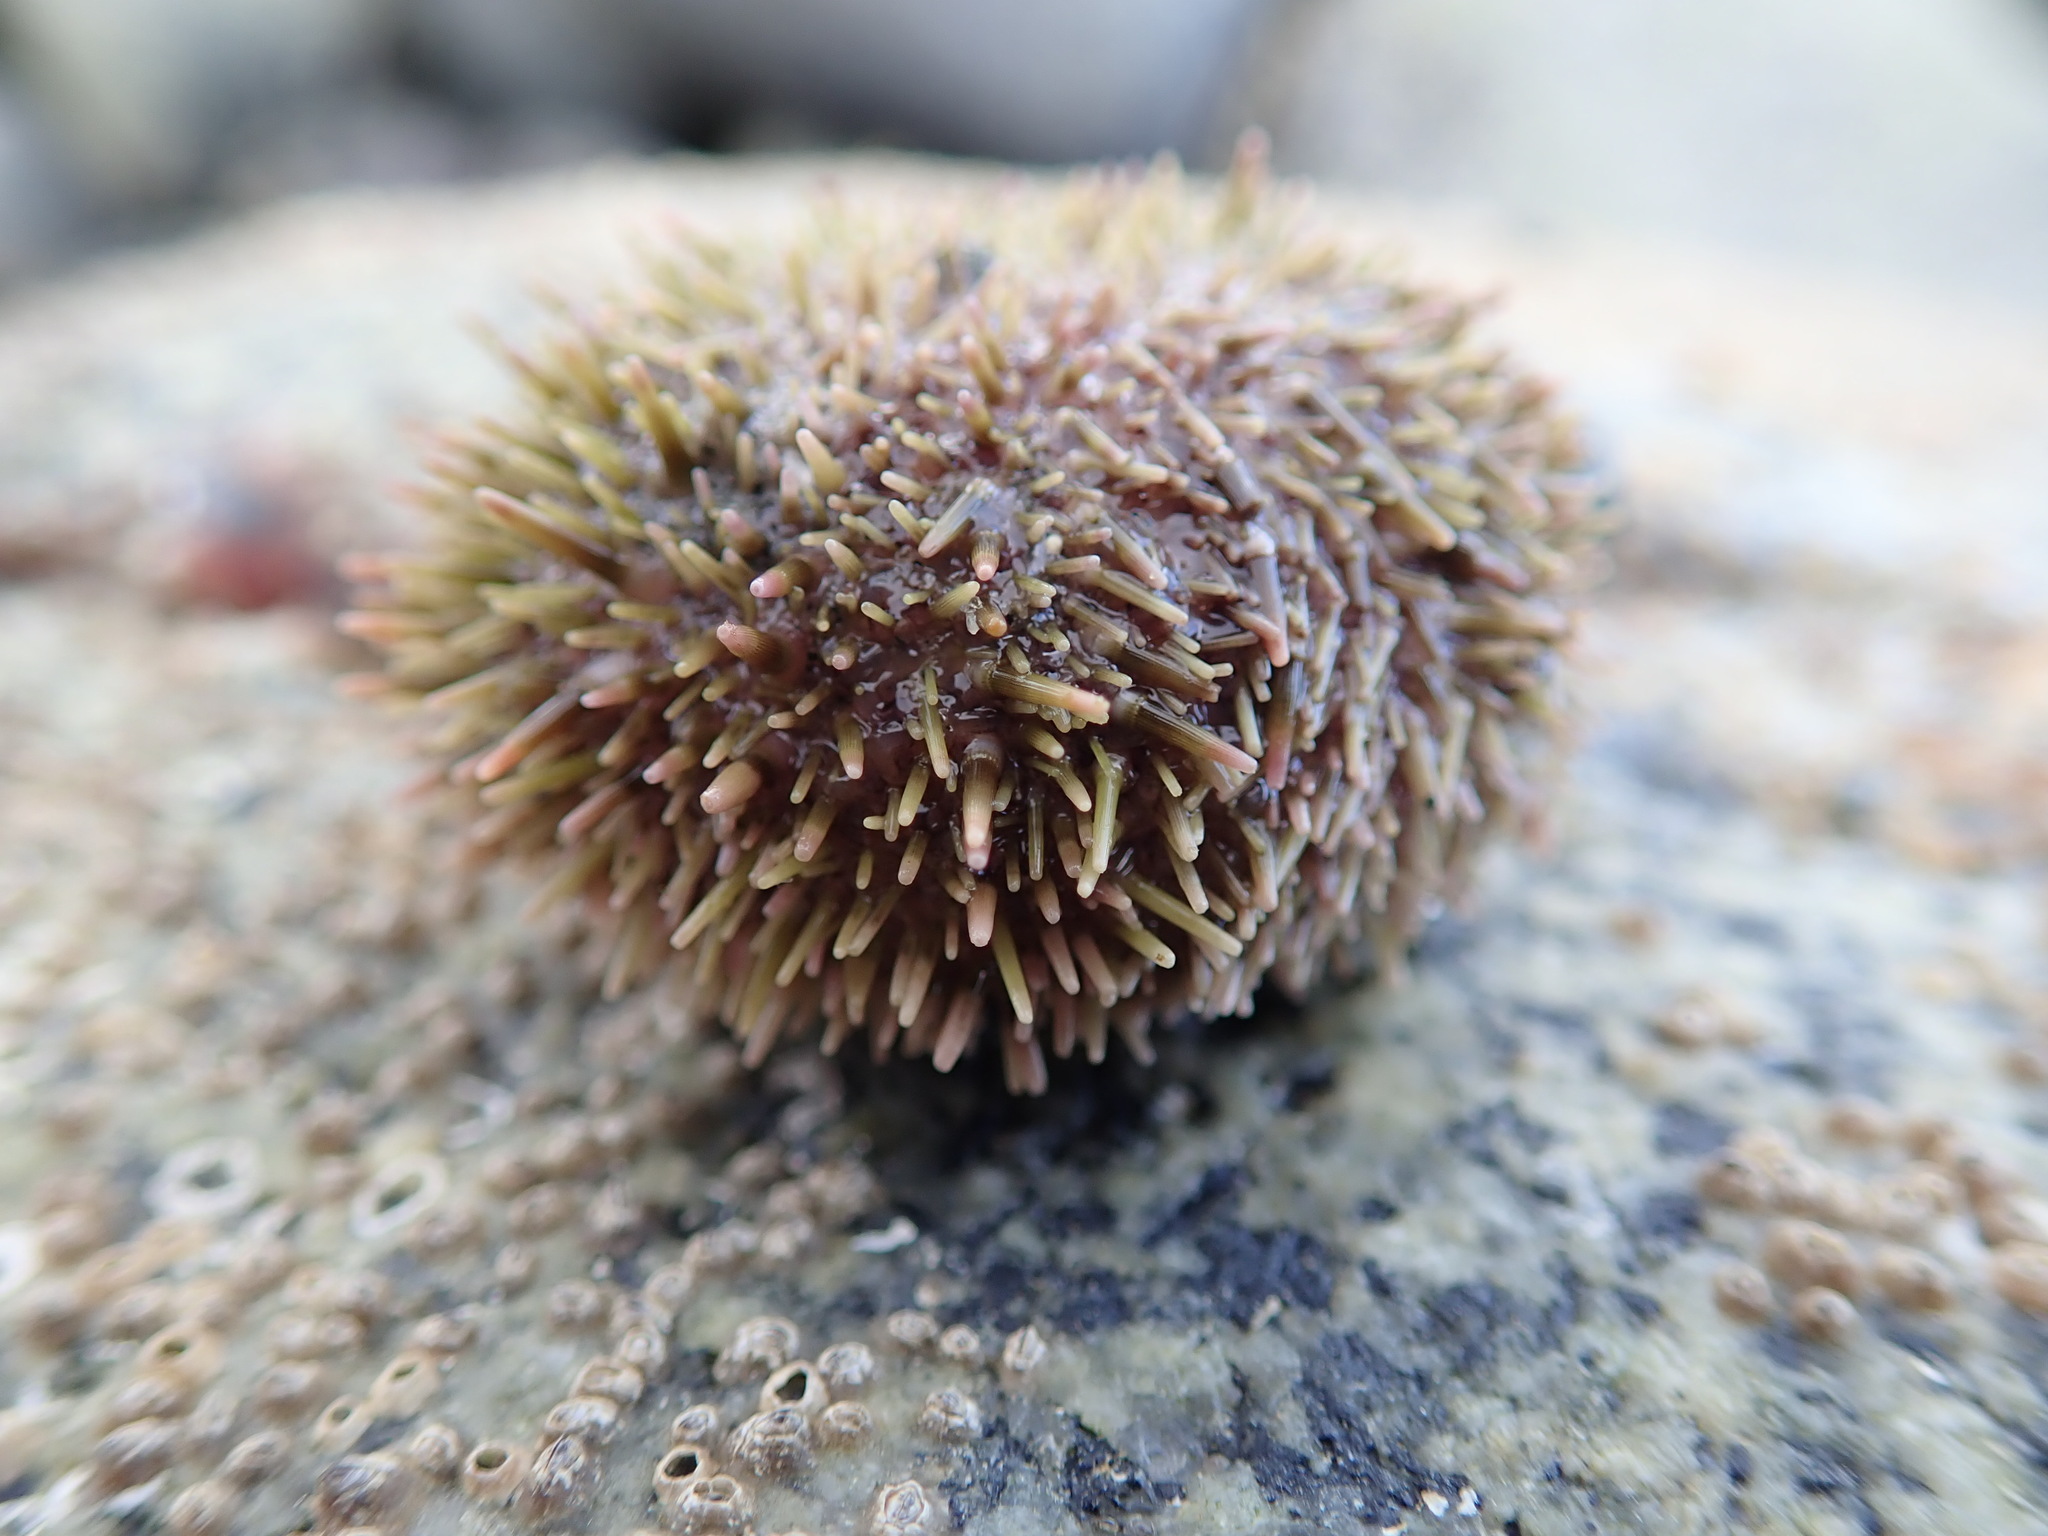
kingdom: Animalia
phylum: Echinodermata
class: Echinoidea
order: Camarodonta
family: Strongylocentrotidae
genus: Strongylocentrotus
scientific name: Strongylocentrotus droebachiensis
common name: Northern sea urchin
